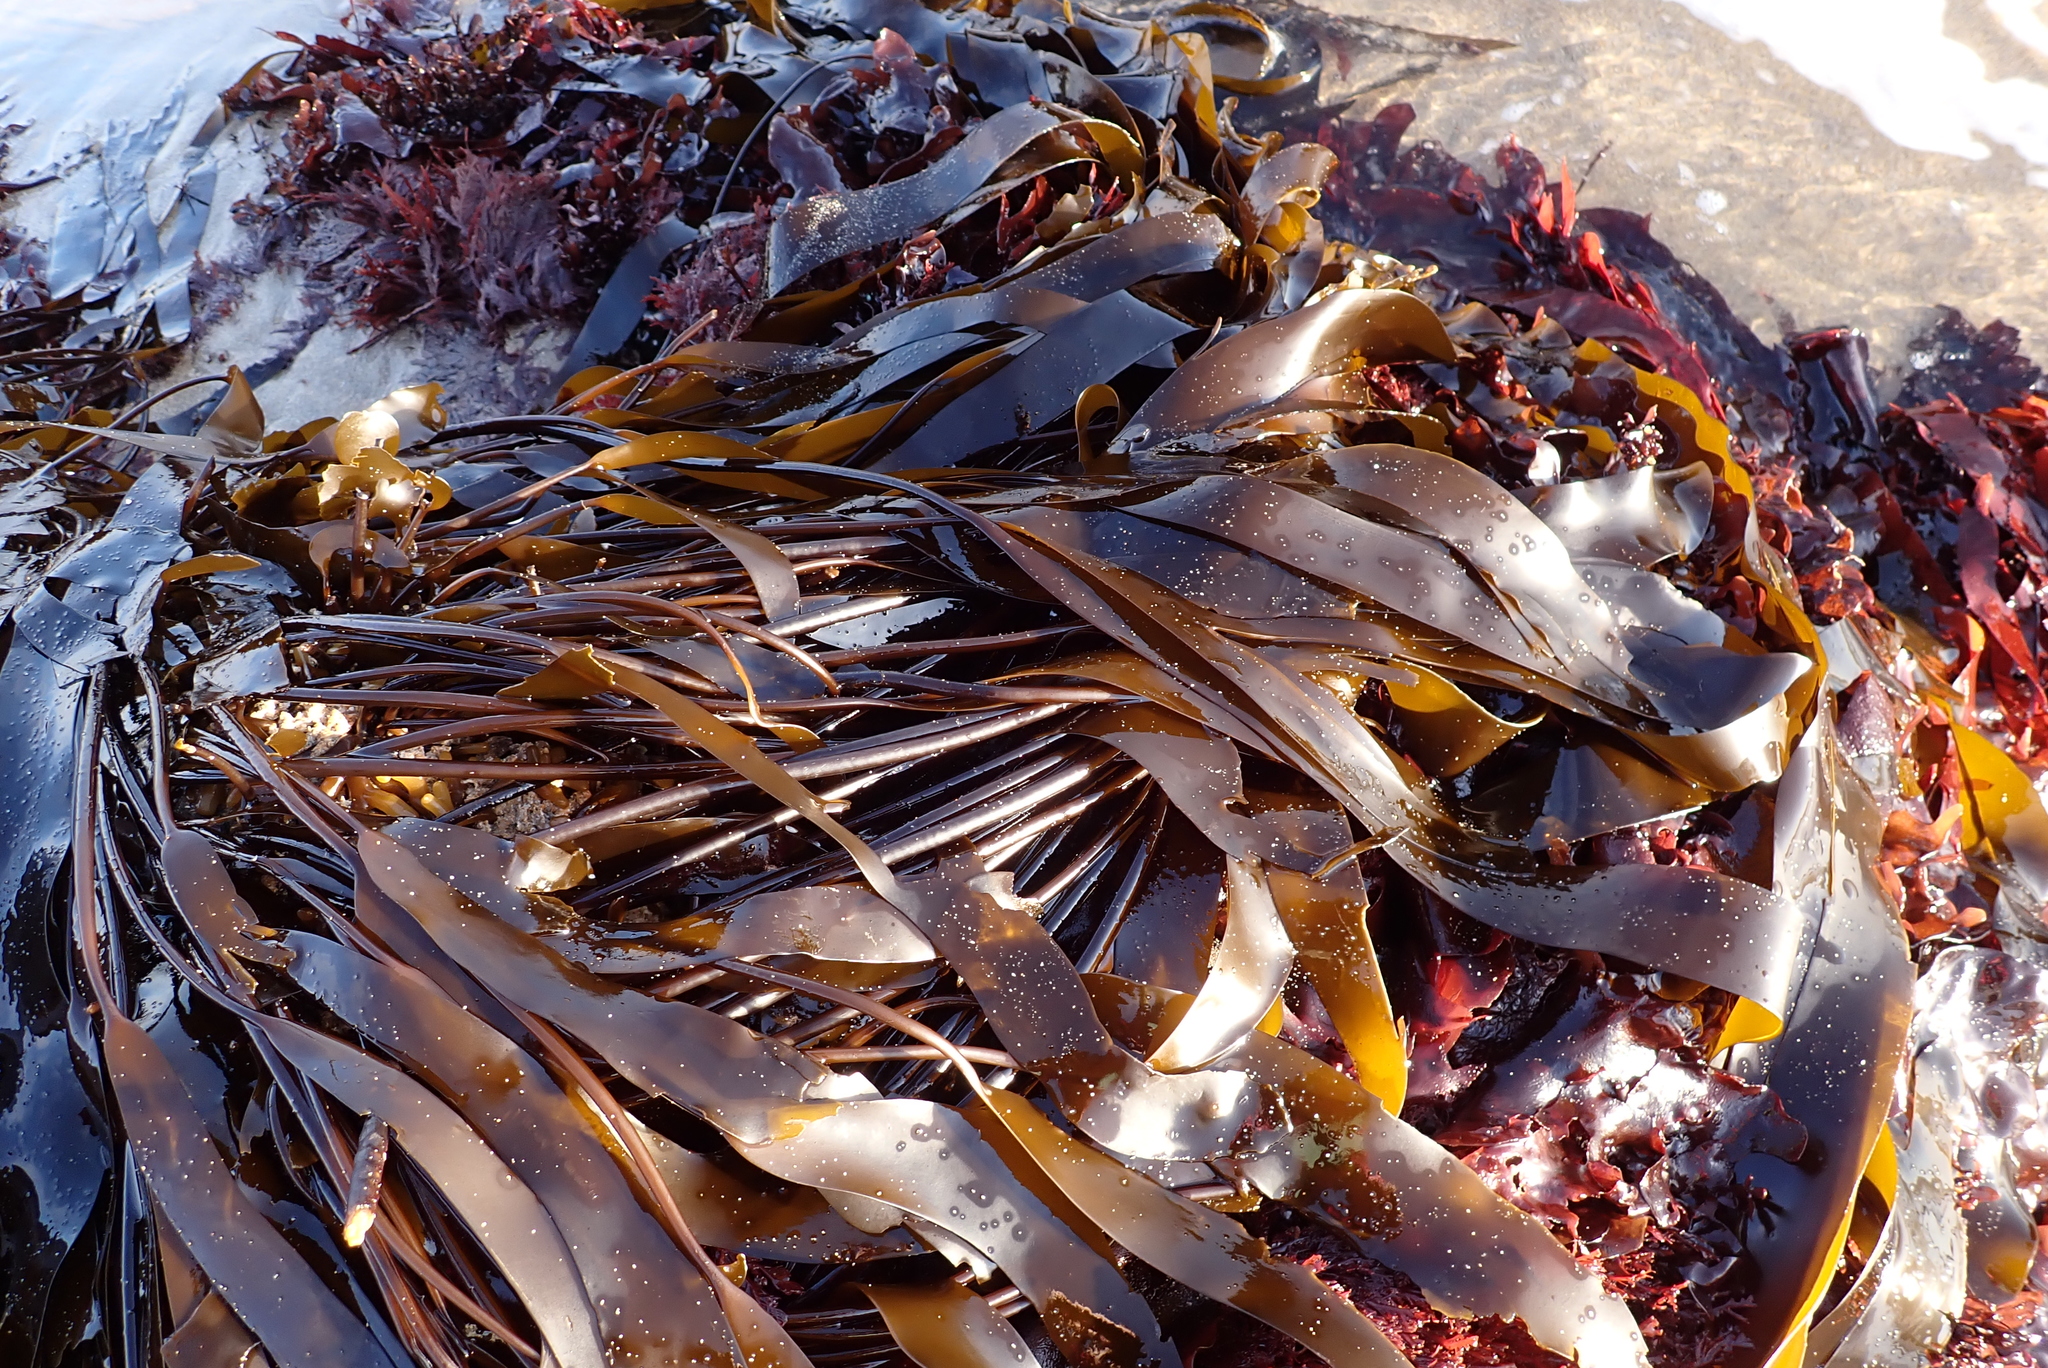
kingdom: Chromista
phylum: Ochrophyta
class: Phaeophyceae
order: Laminariales
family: Laminariaceae
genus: Laminaria
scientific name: Laminaria sinclairii
